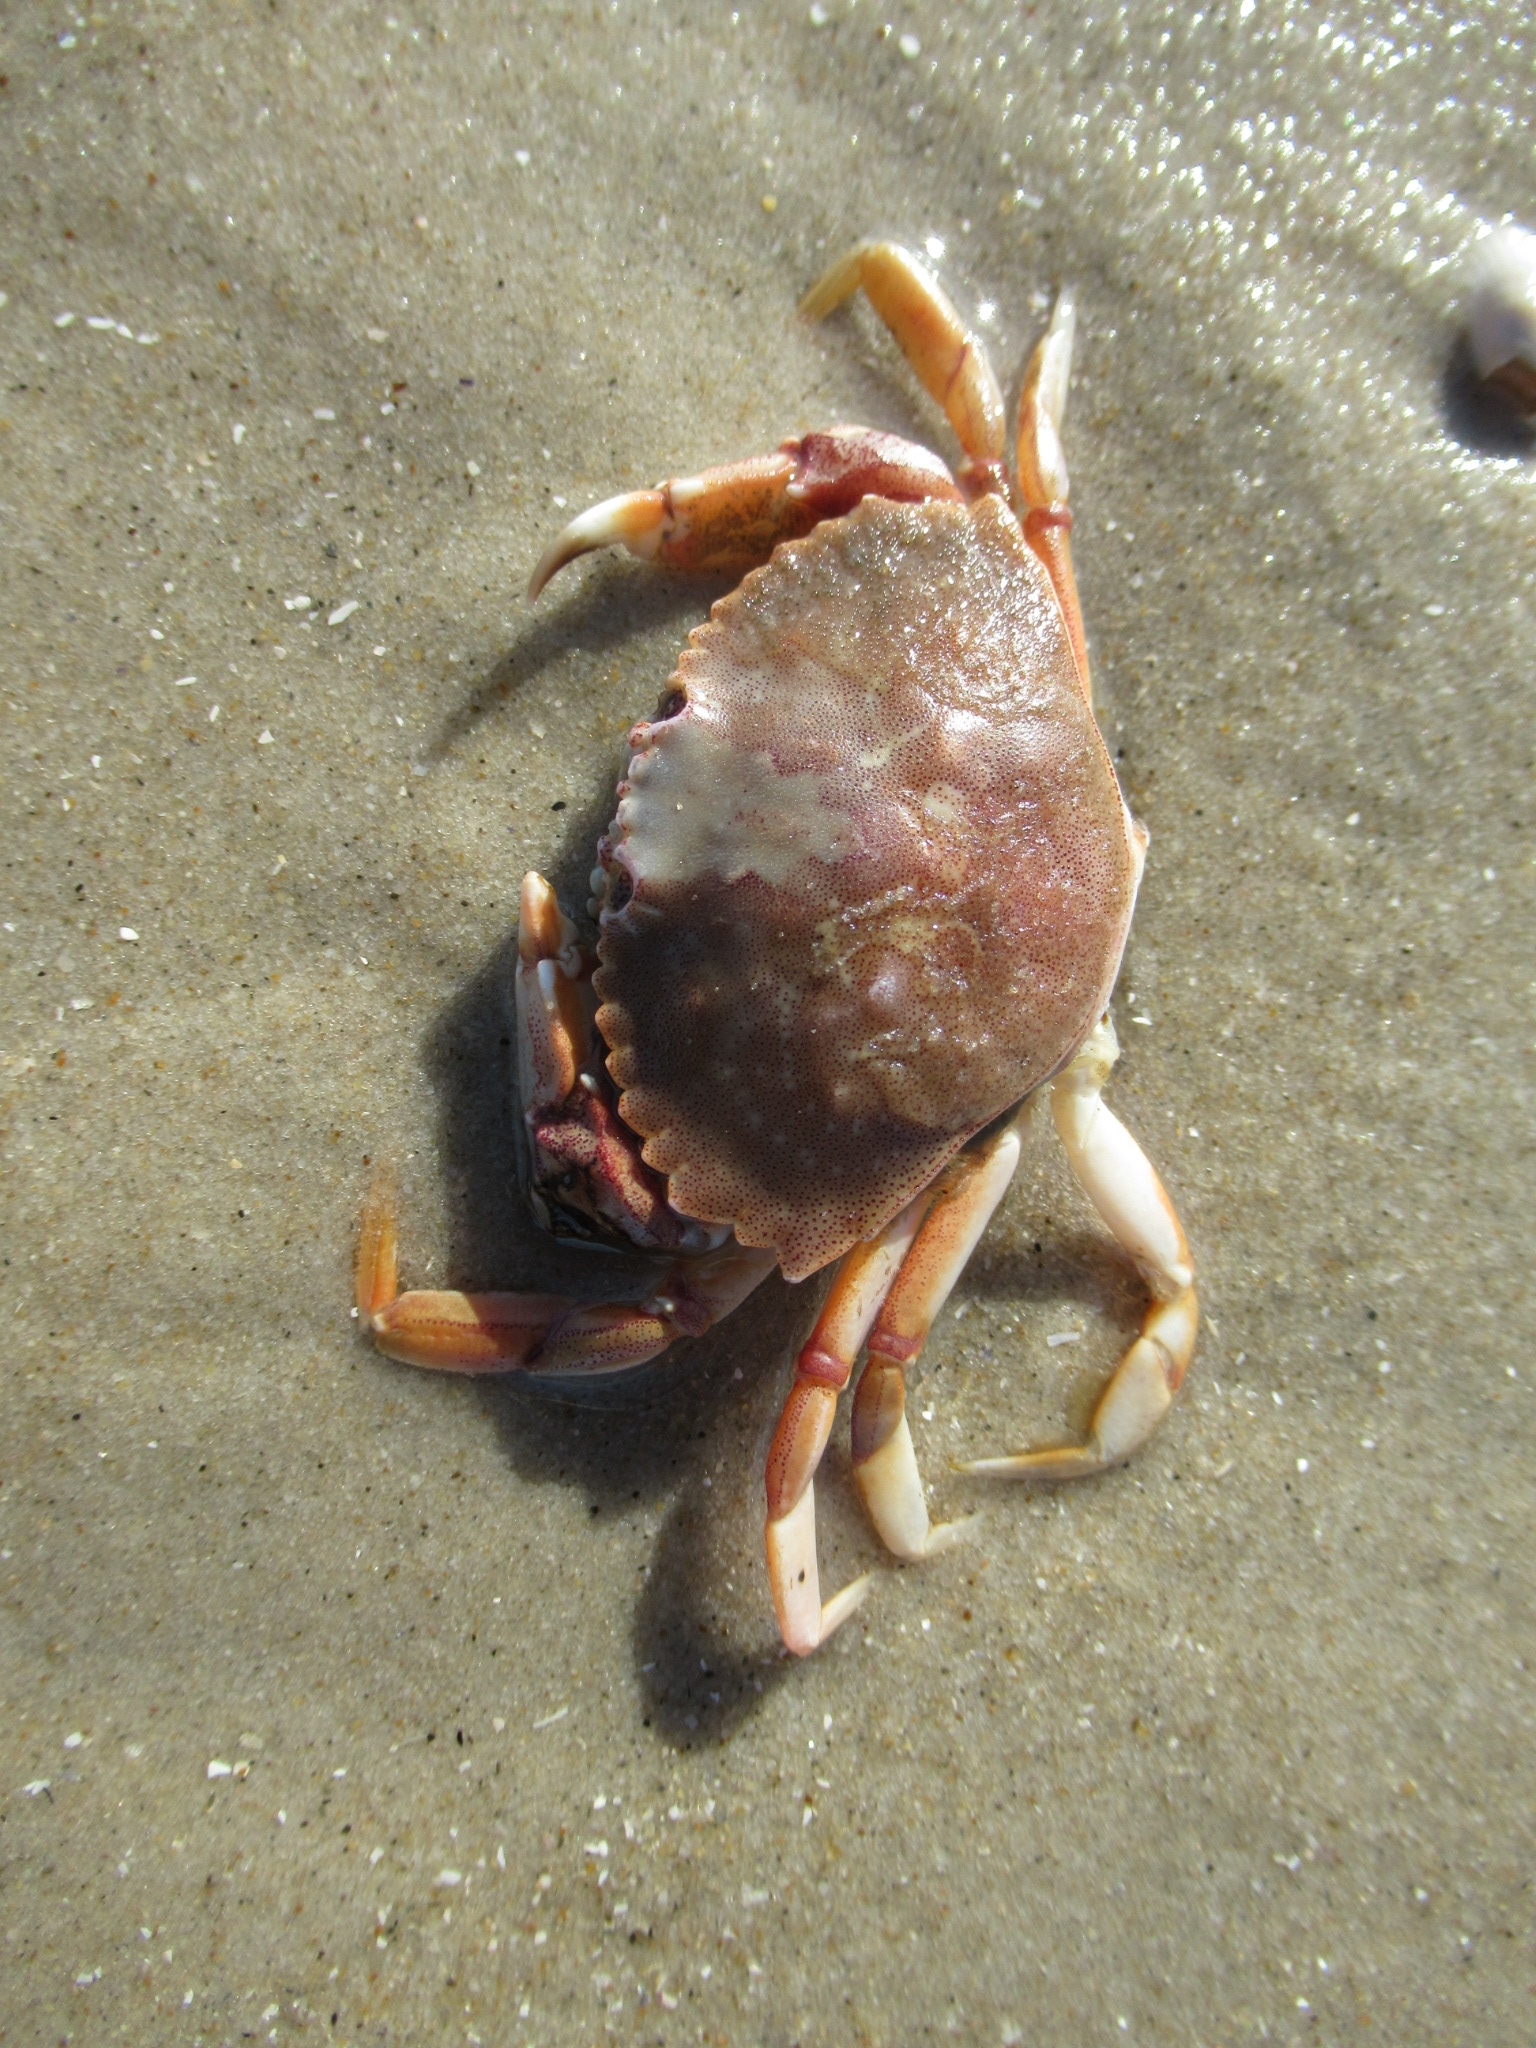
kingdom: Animalia
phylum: Arthropoda
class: Malacostraca
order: Decapoda
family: Cancridae
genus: Cancer
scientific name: Cancer irroratus
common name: Atlantic rock crab
